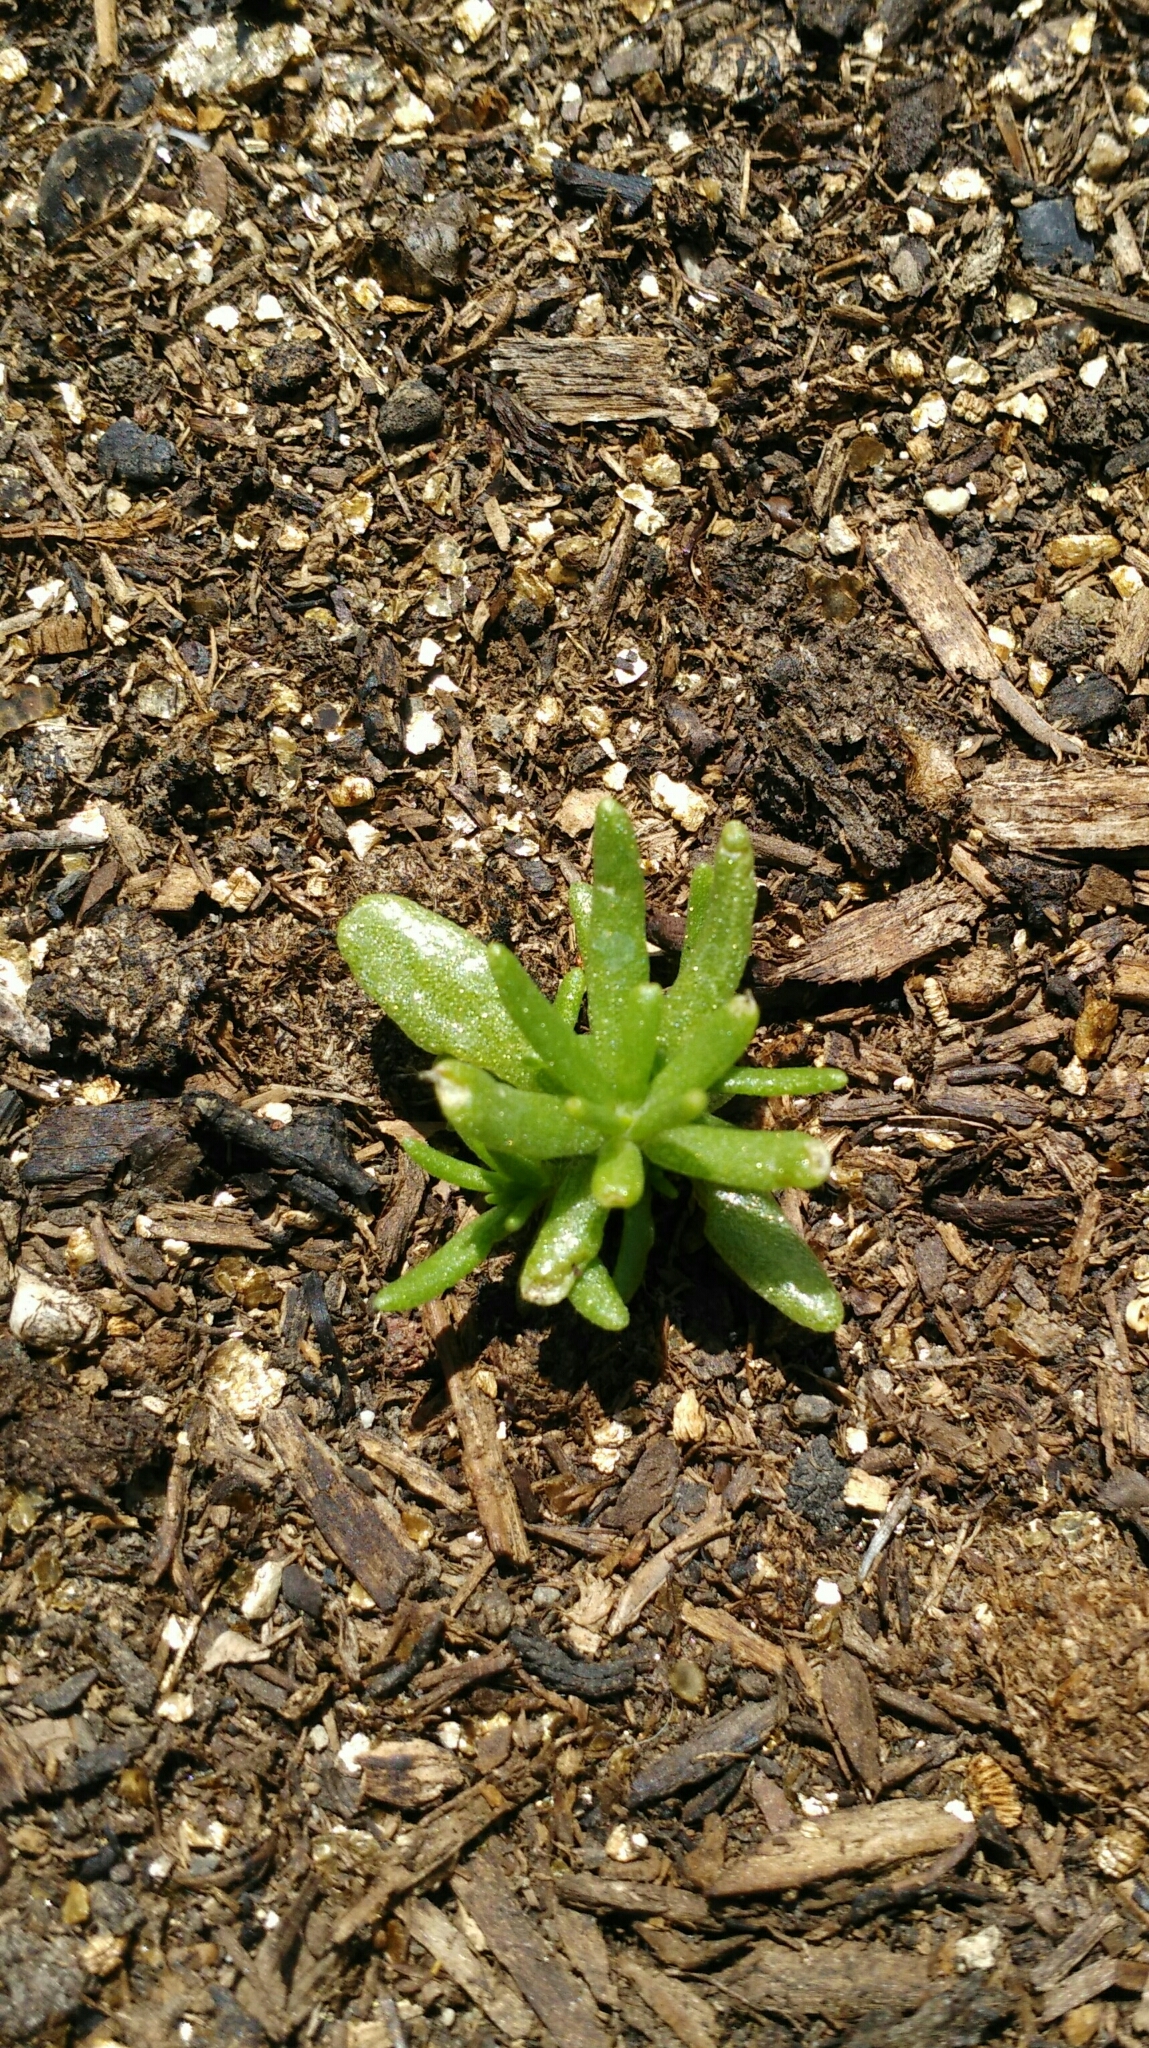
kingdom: Plantae
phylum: Tracheophyta
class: Magnoliopsida
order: Caryophyllales
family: Portulacaceae
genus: Portulaca
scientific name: Portulaca grandiflora
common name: Moss-rose
